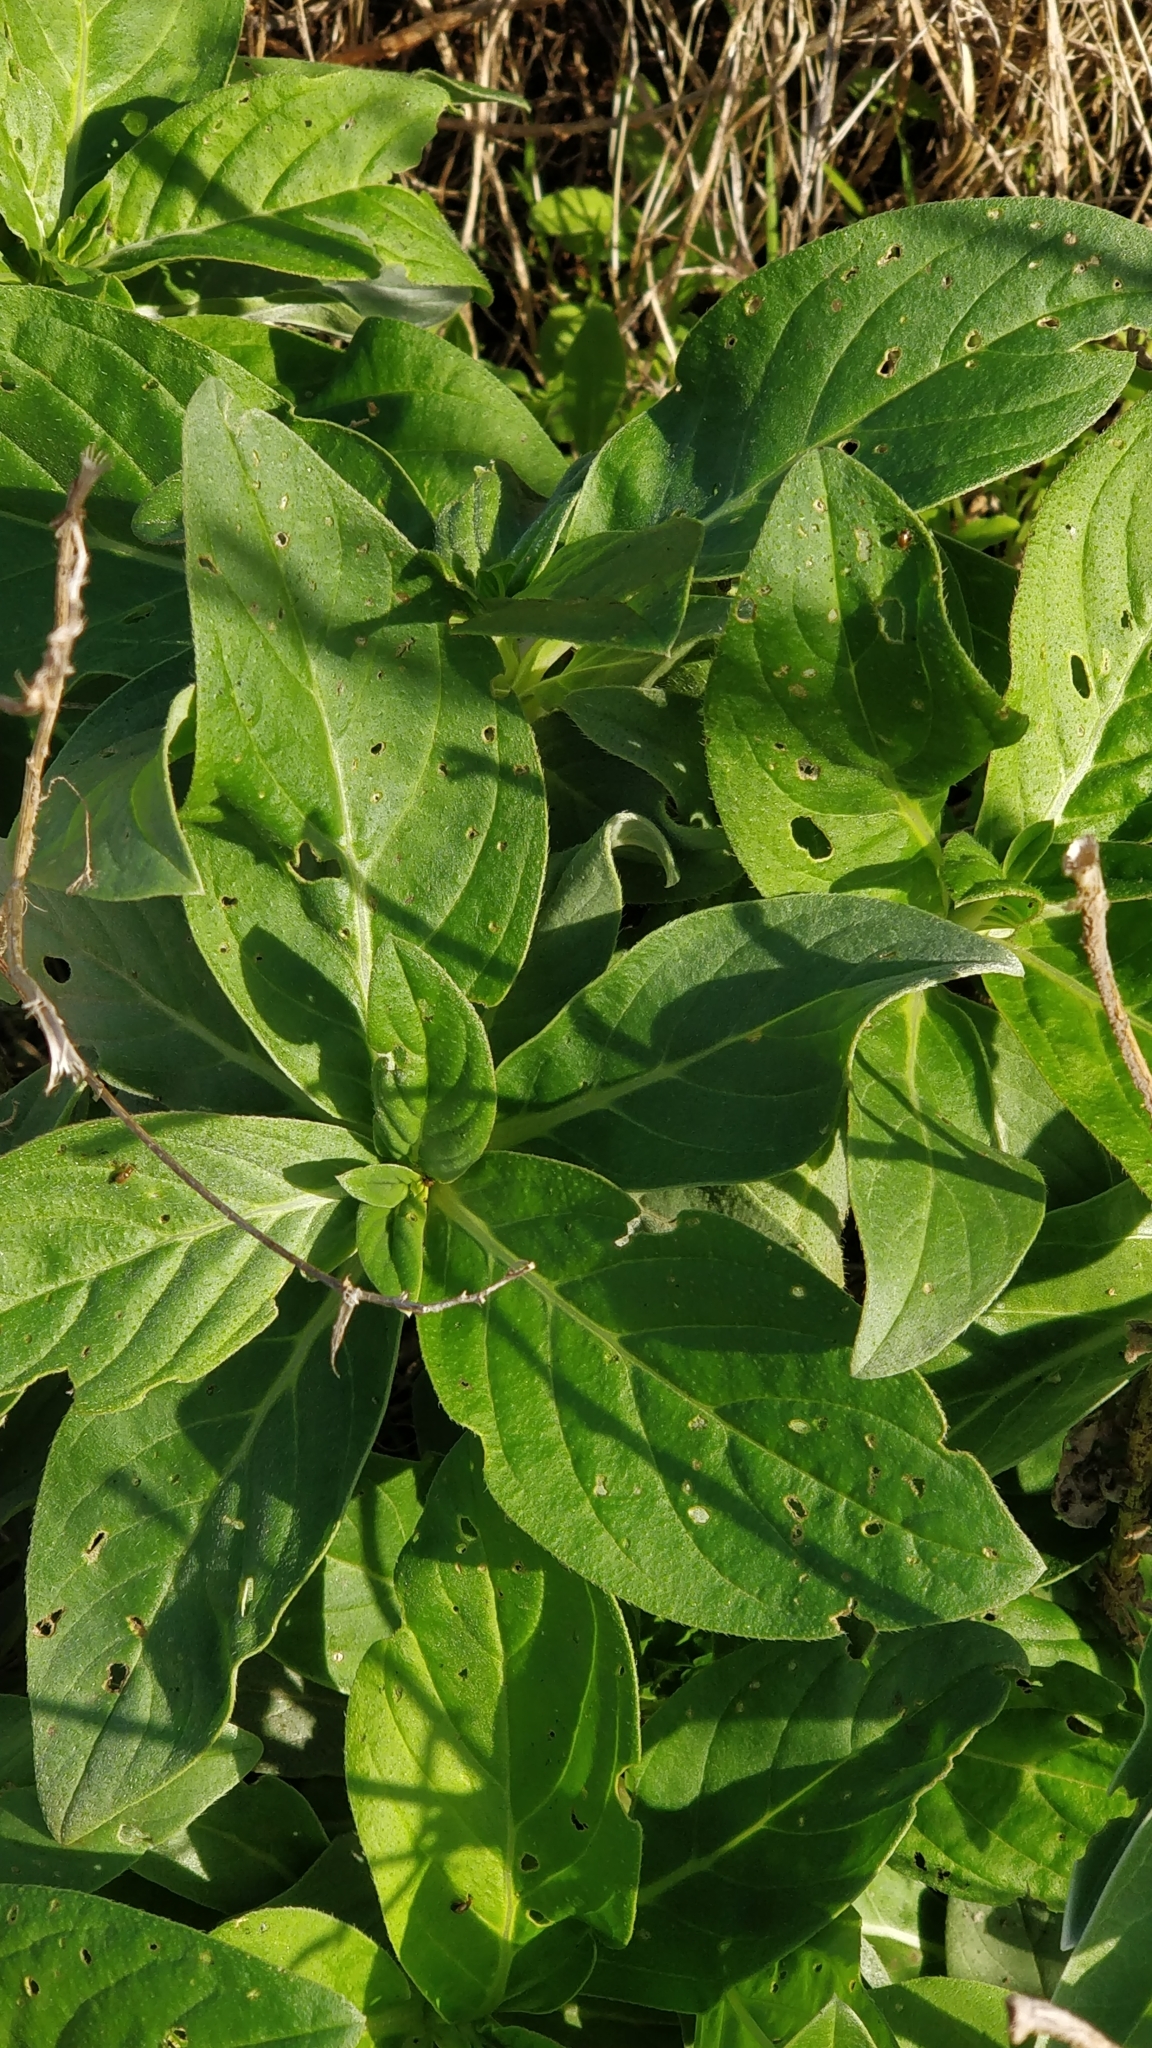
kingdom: Plantae
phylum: Tracheophyta
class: Magnoliopsida
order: Boraginales
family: Boraginaceae
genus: Echium
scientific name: Echium nervosum
